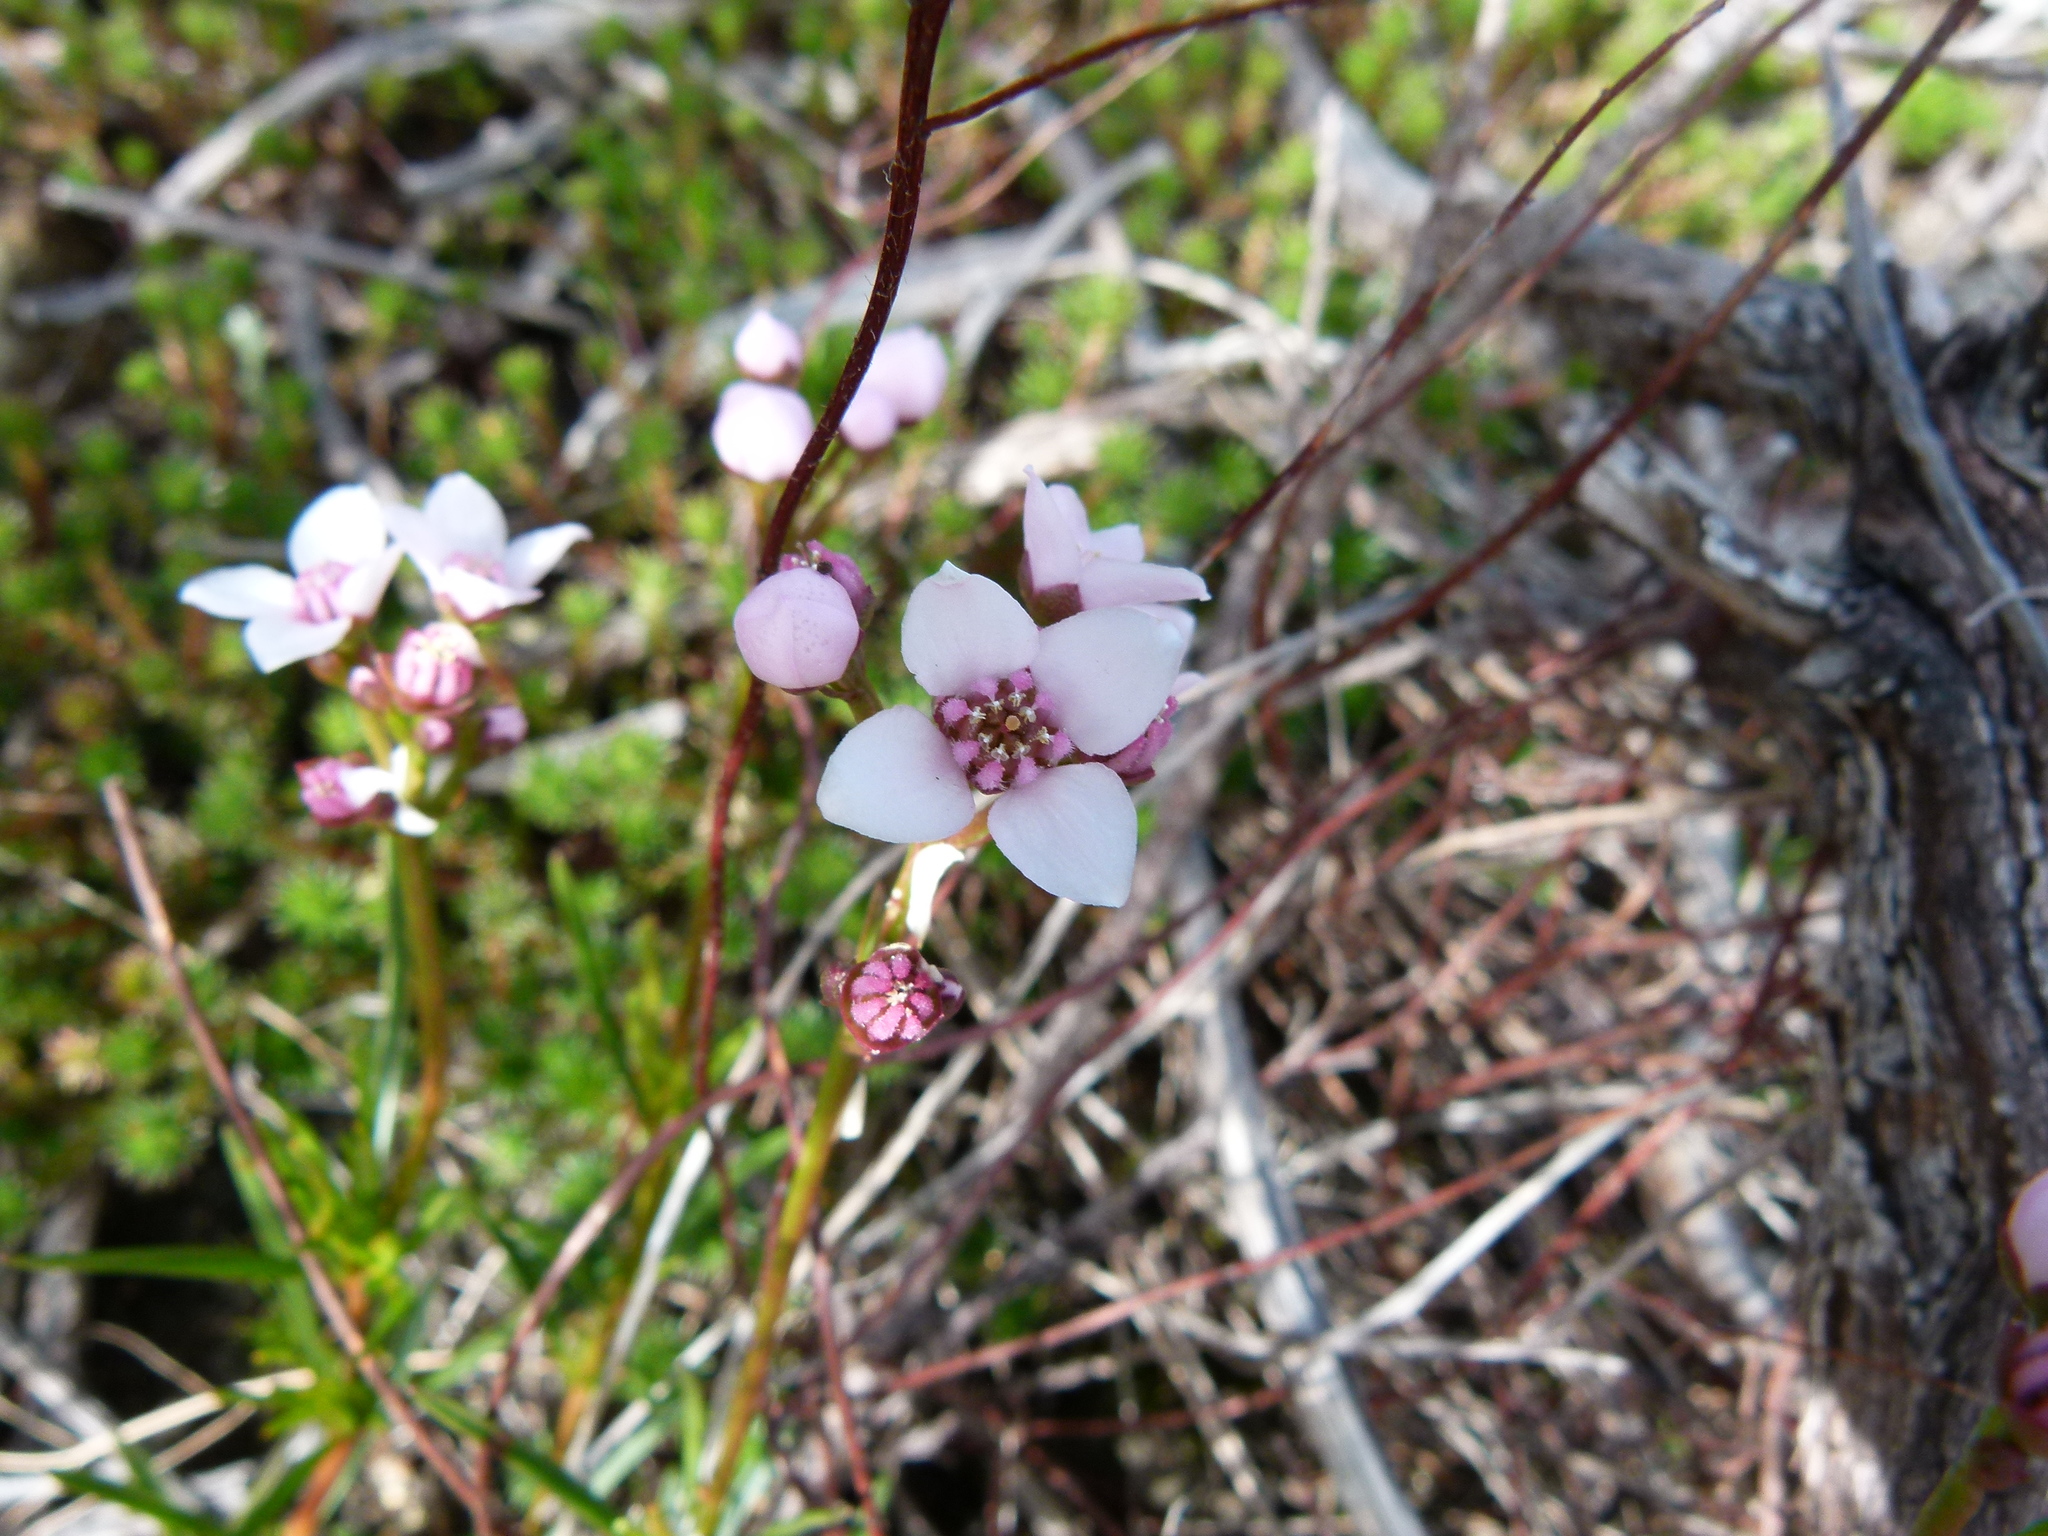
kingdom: Plantae
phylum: Tracheophyta
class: Magnoliopsida
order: Sapindales
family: Rutaceae
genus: Boronia
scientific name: Boronia cymosa
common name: Granite boronia
